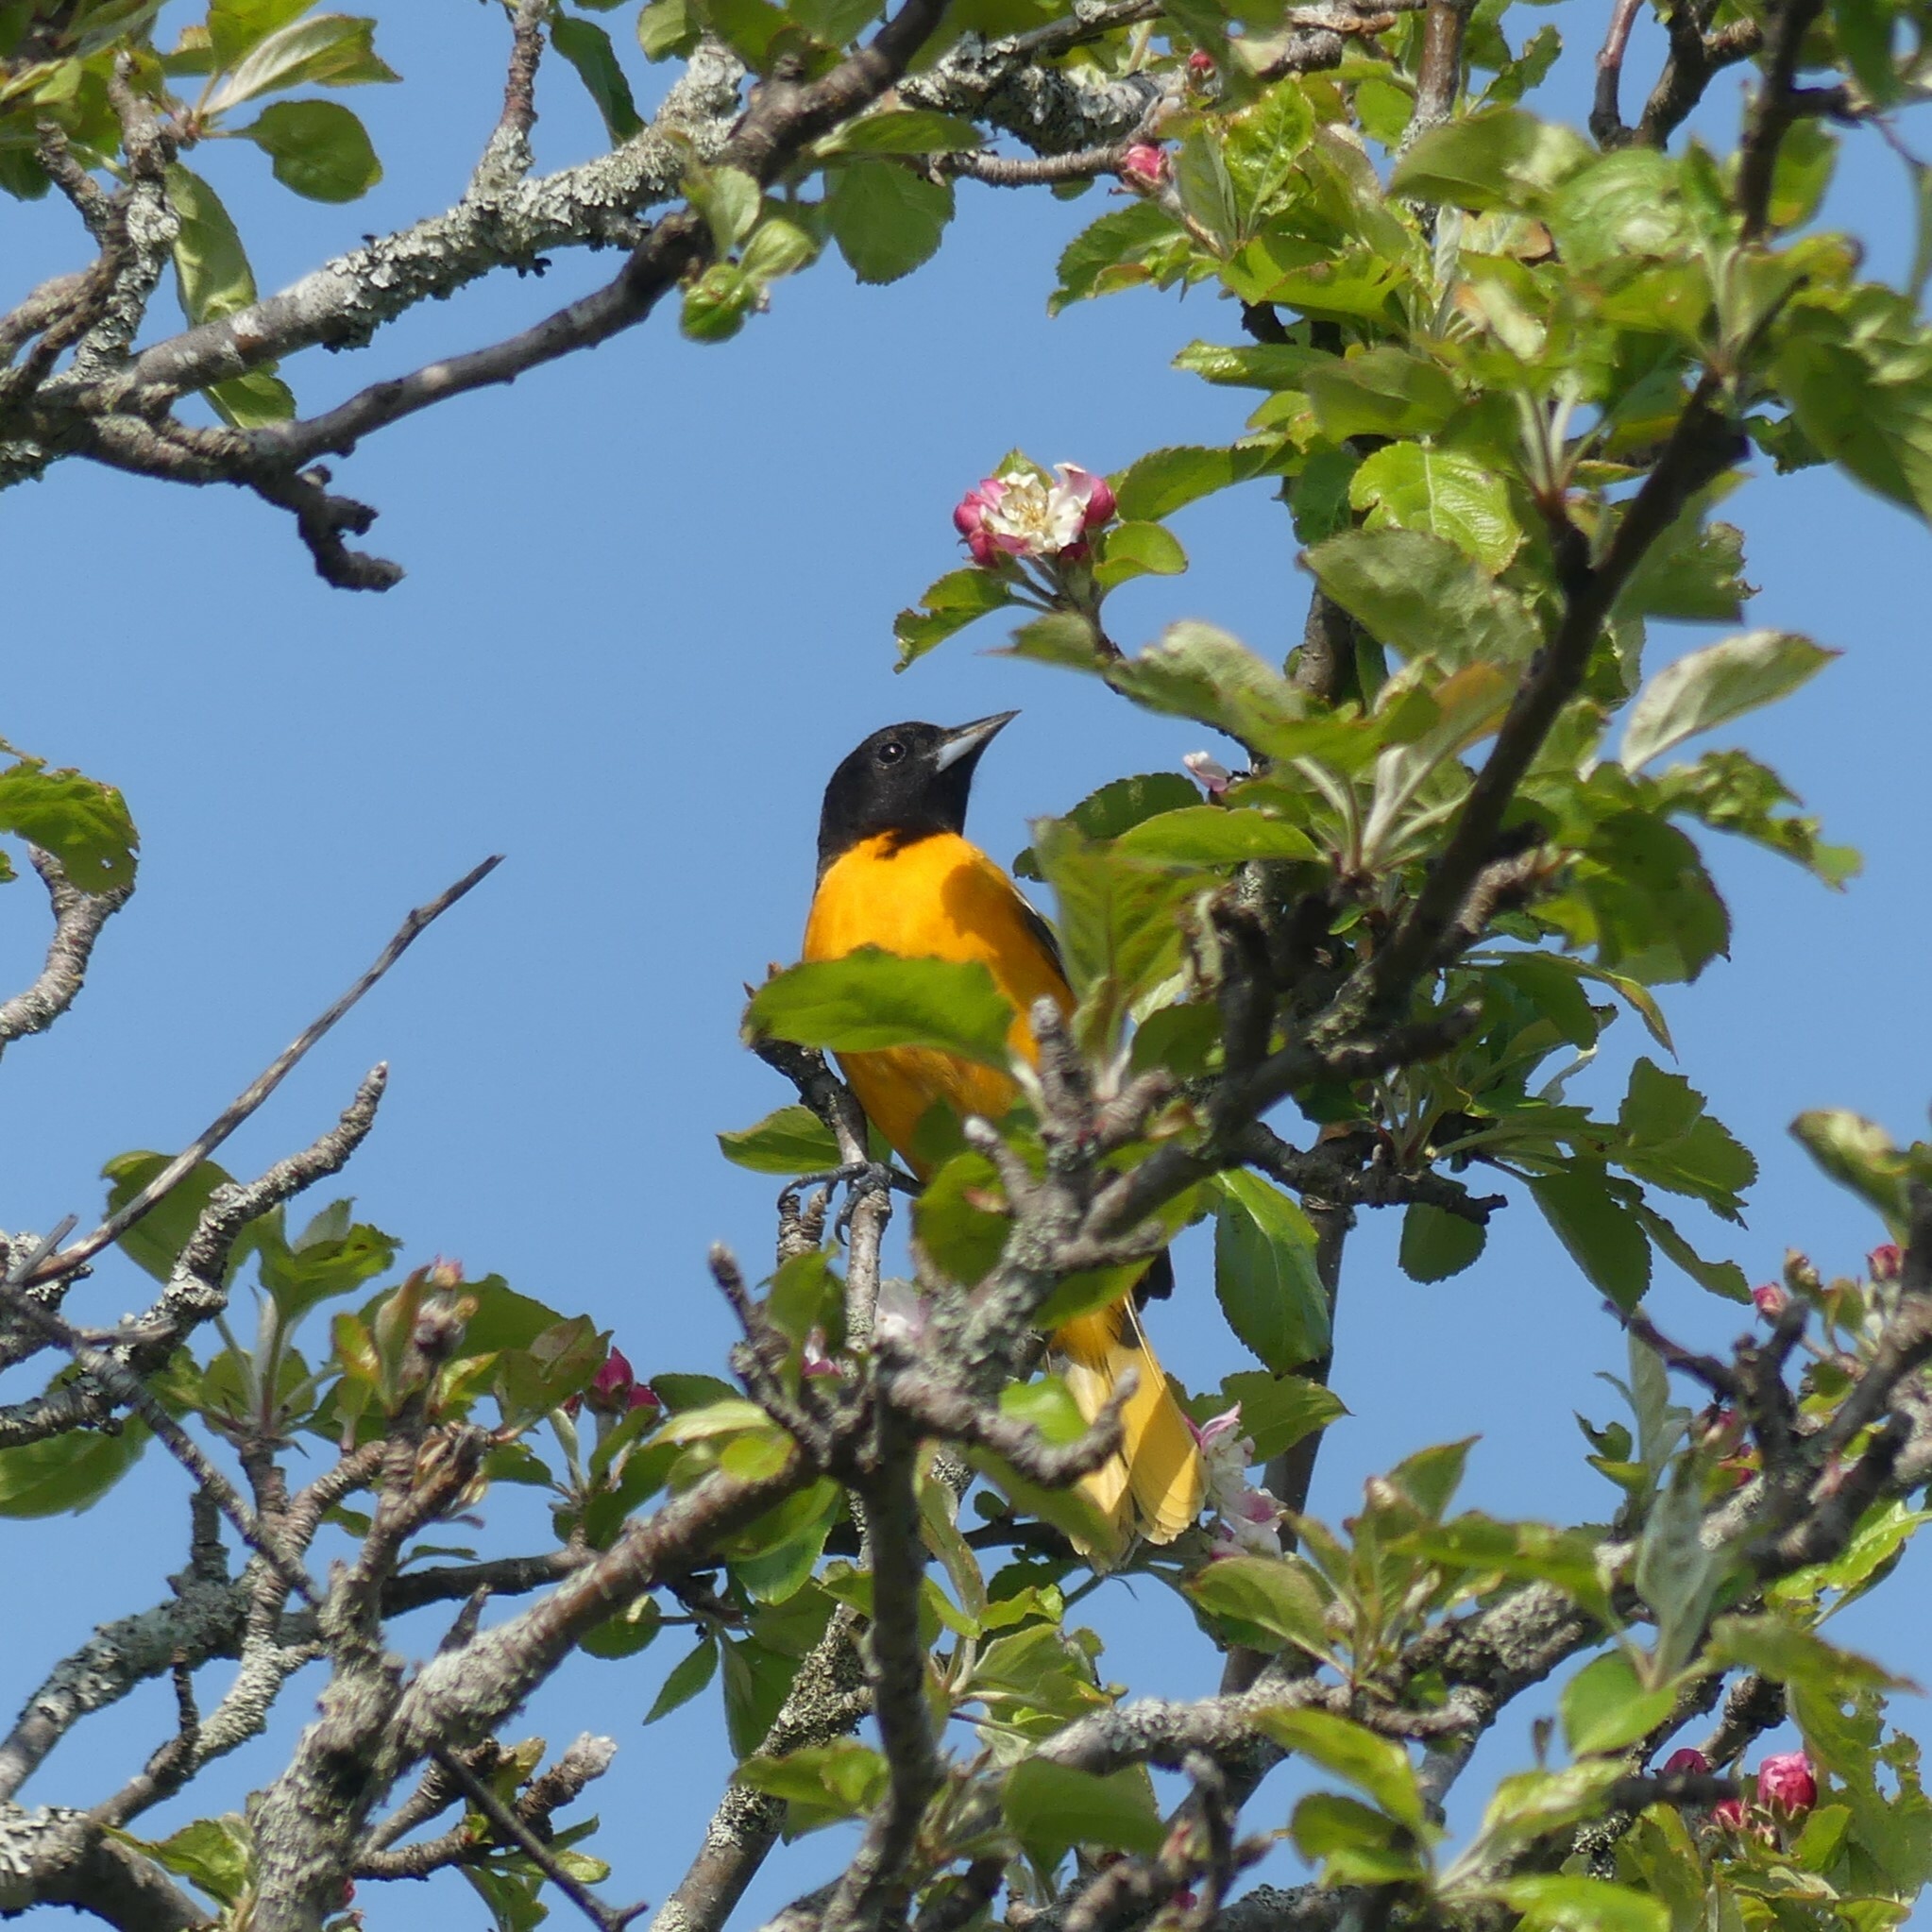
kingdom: Animalia
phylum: Chordata
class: Aves
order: Passeriformes
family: Icteridae
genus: Icterus
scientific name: Icterus galbula
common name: Baltimore oriole
